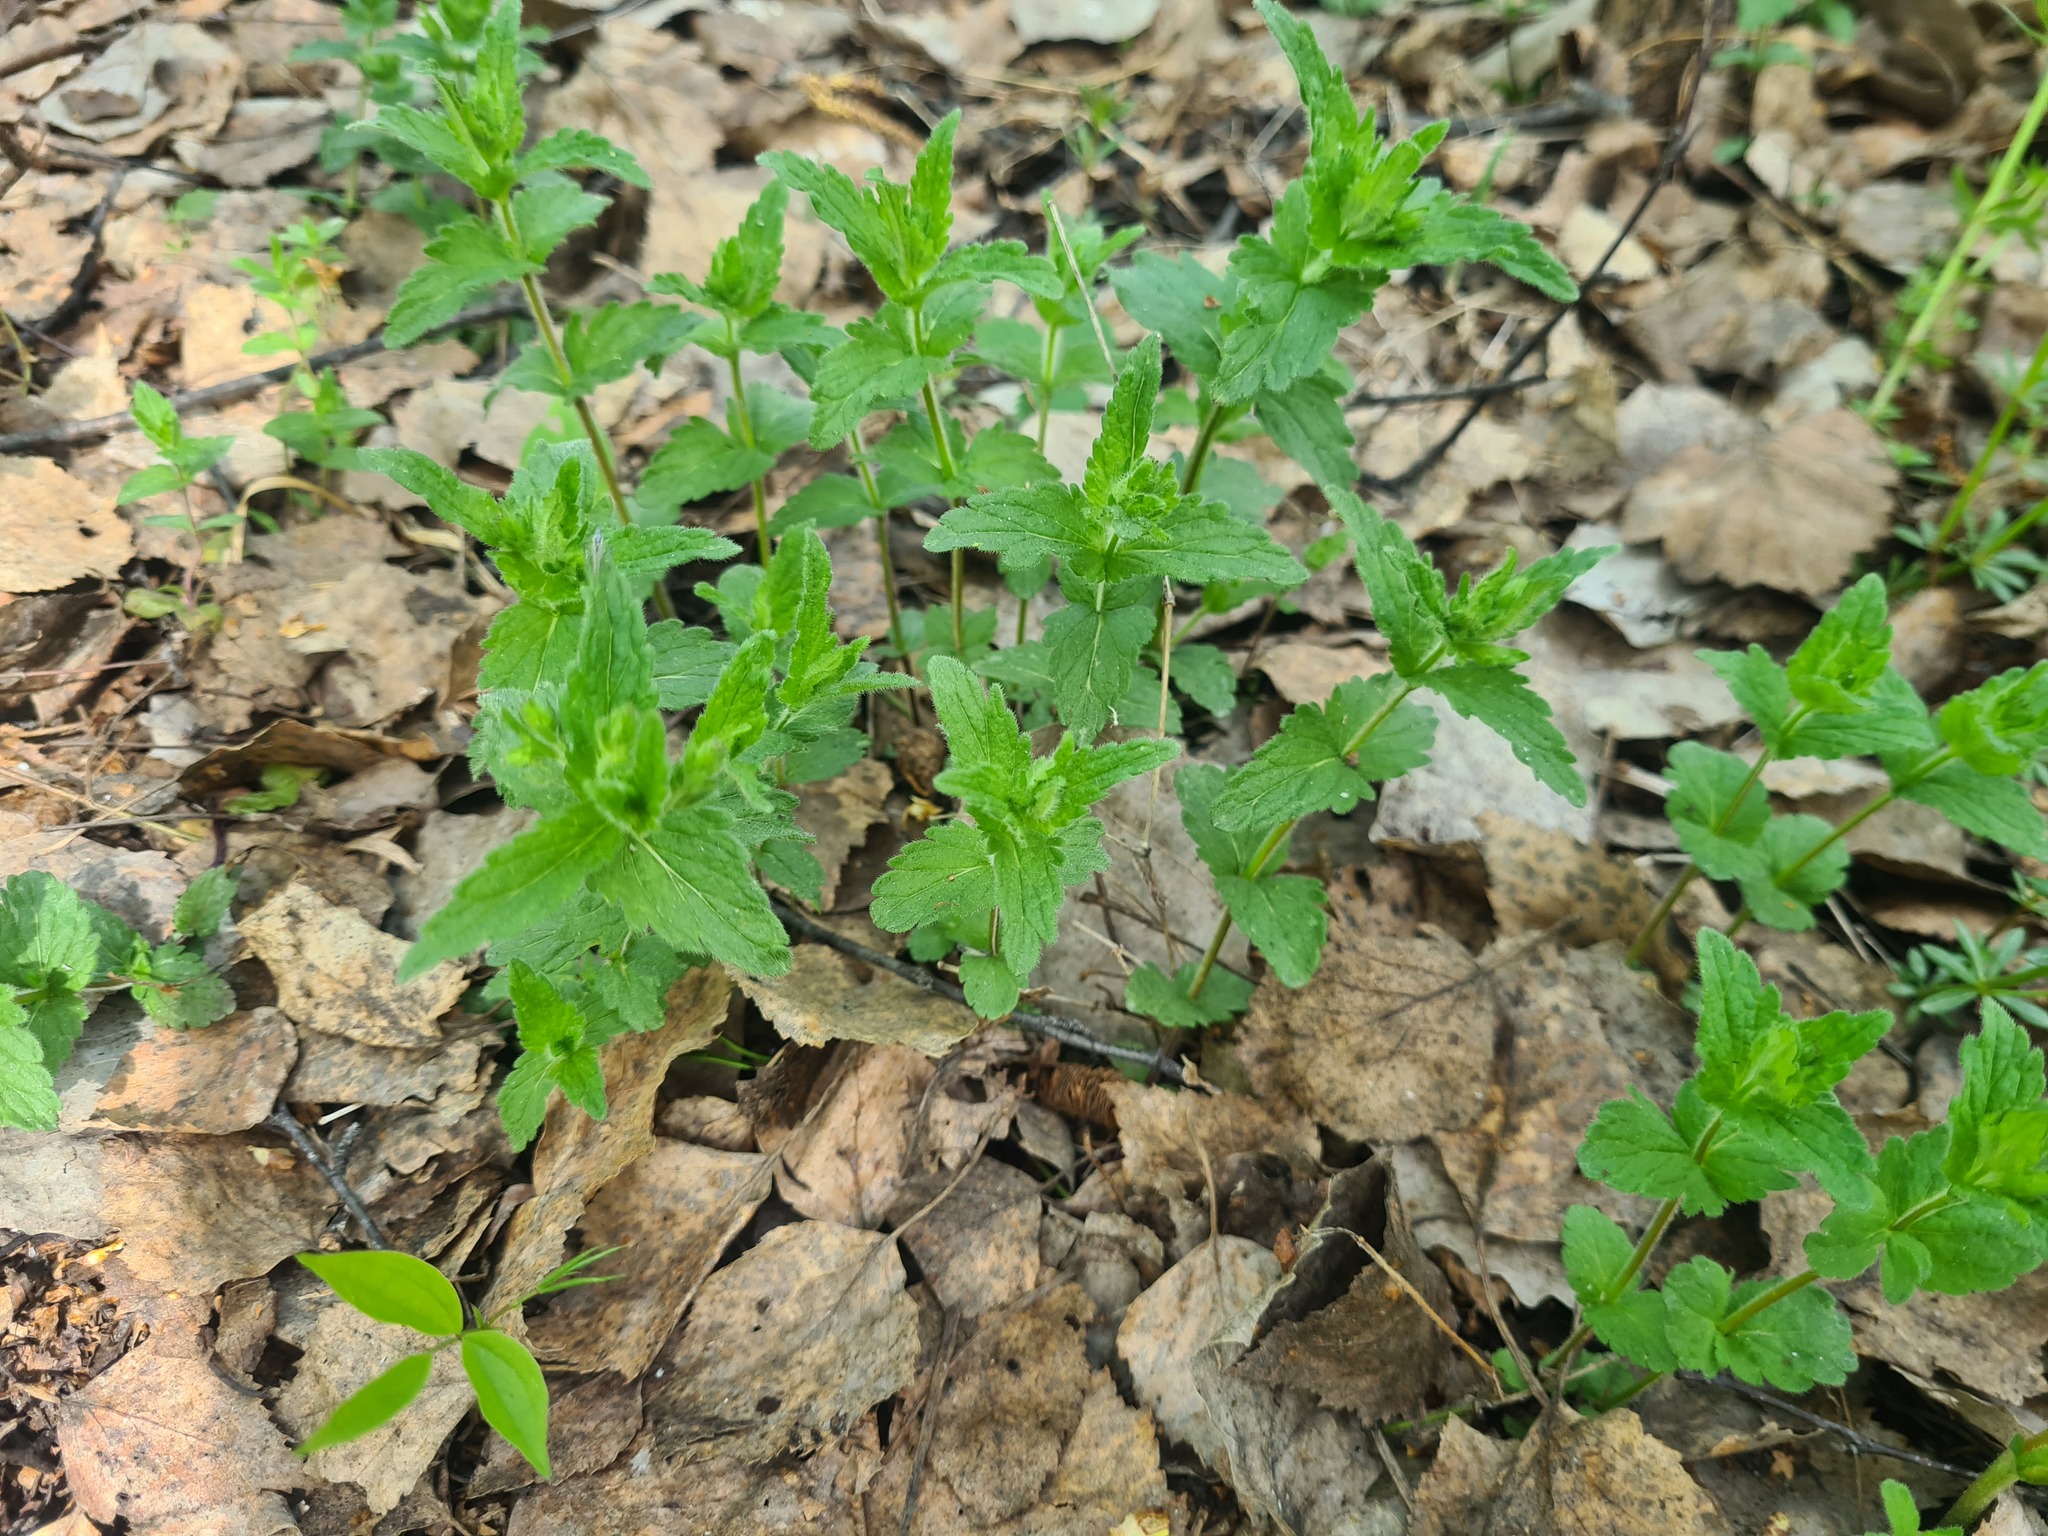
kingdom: Plantae
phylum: Tracheophyta
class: Magnoliopsida
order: Lamiales
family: Plantaginaceae
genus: Veronica
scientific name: Veronica chamaedrys
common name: Germander speedwell
